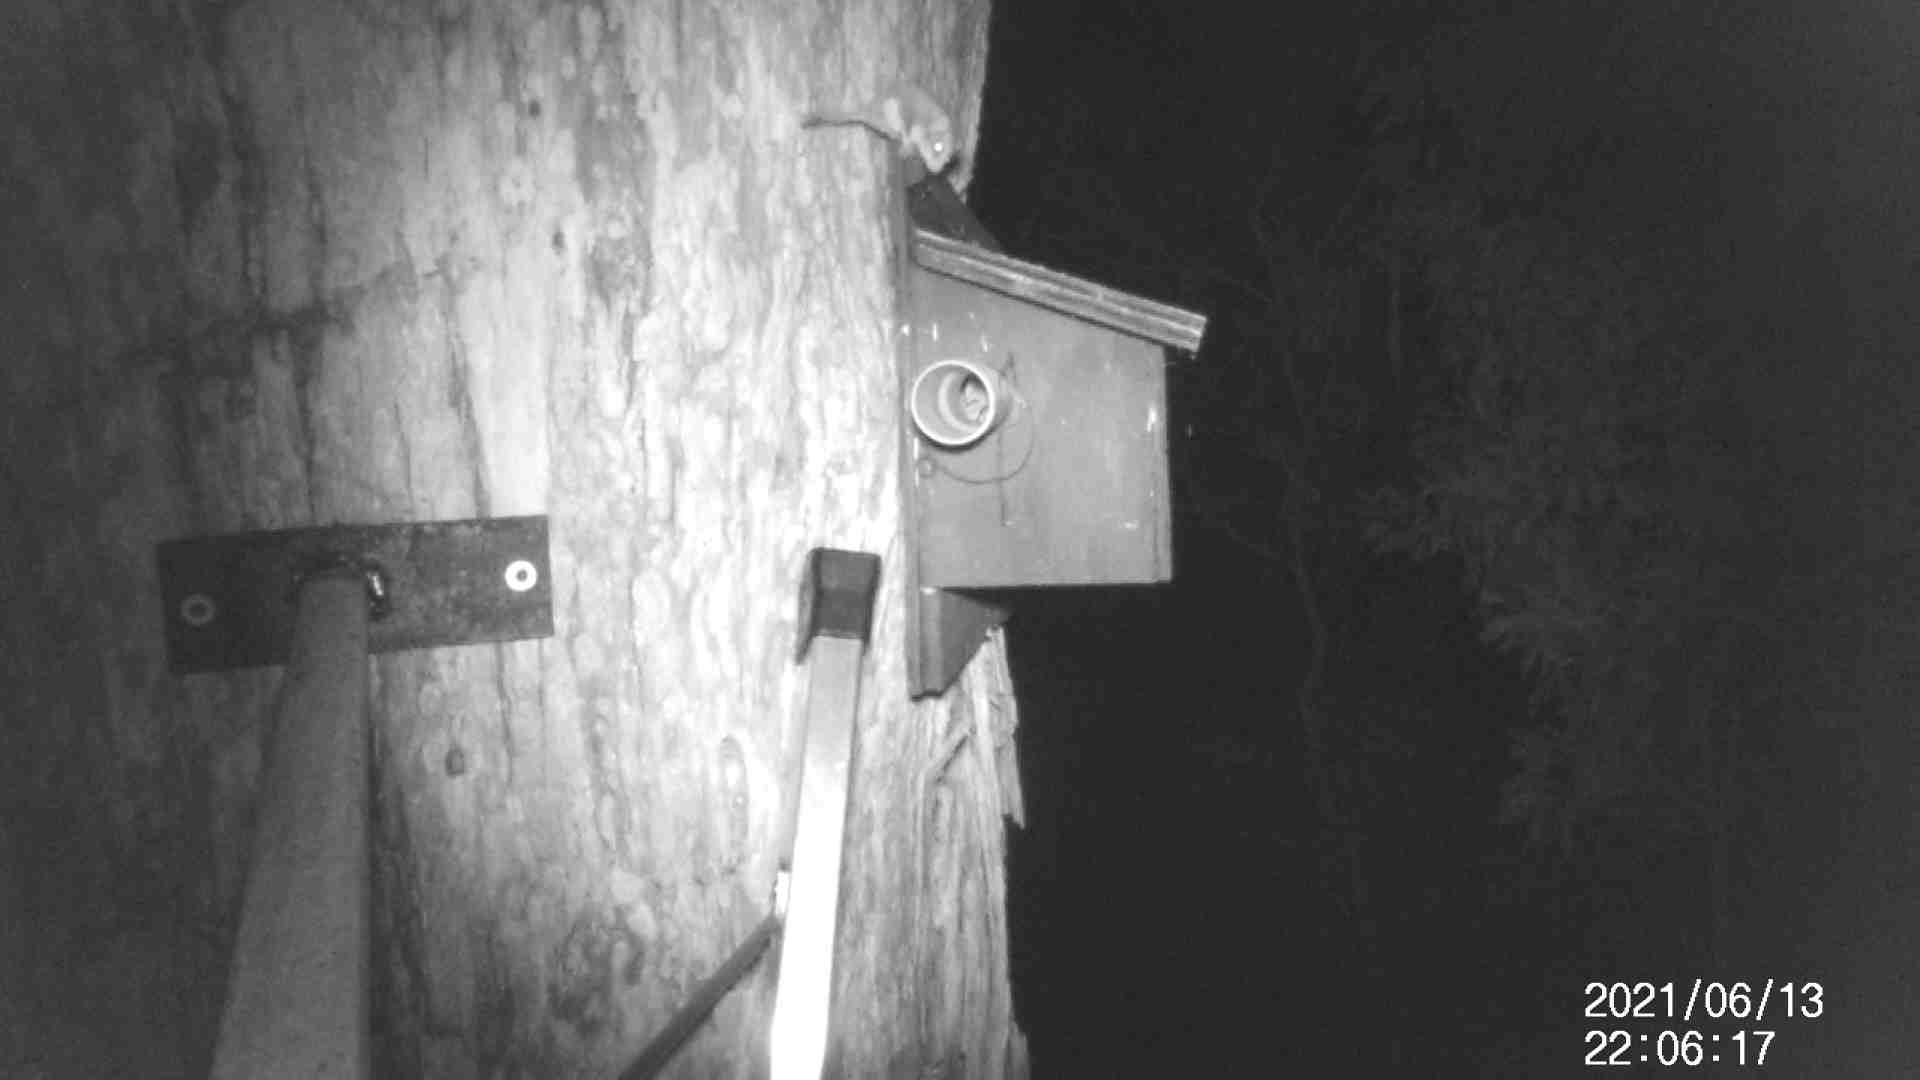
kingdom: Animalia
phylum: Chordata
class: Mammalia
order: Diprotodontia
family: Acrobatidae
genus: Acrobates
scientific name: Acrobates pygmaeus
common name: Feathertail glider
